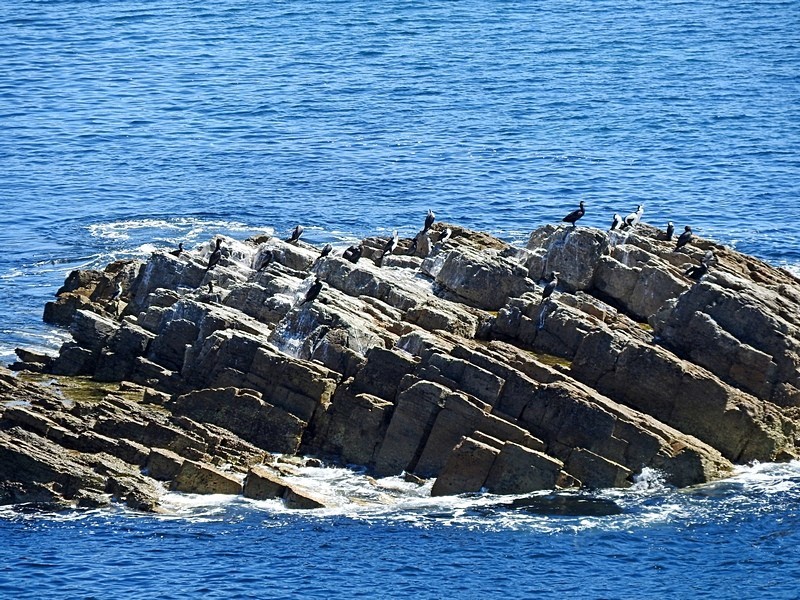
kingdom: Animalia
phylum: Chordata
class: Aves
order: Suliformes
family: Phalacrocoracidae
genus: Phalacrocorax
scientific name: Phalacrocorax varius
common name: Pied cormorant
